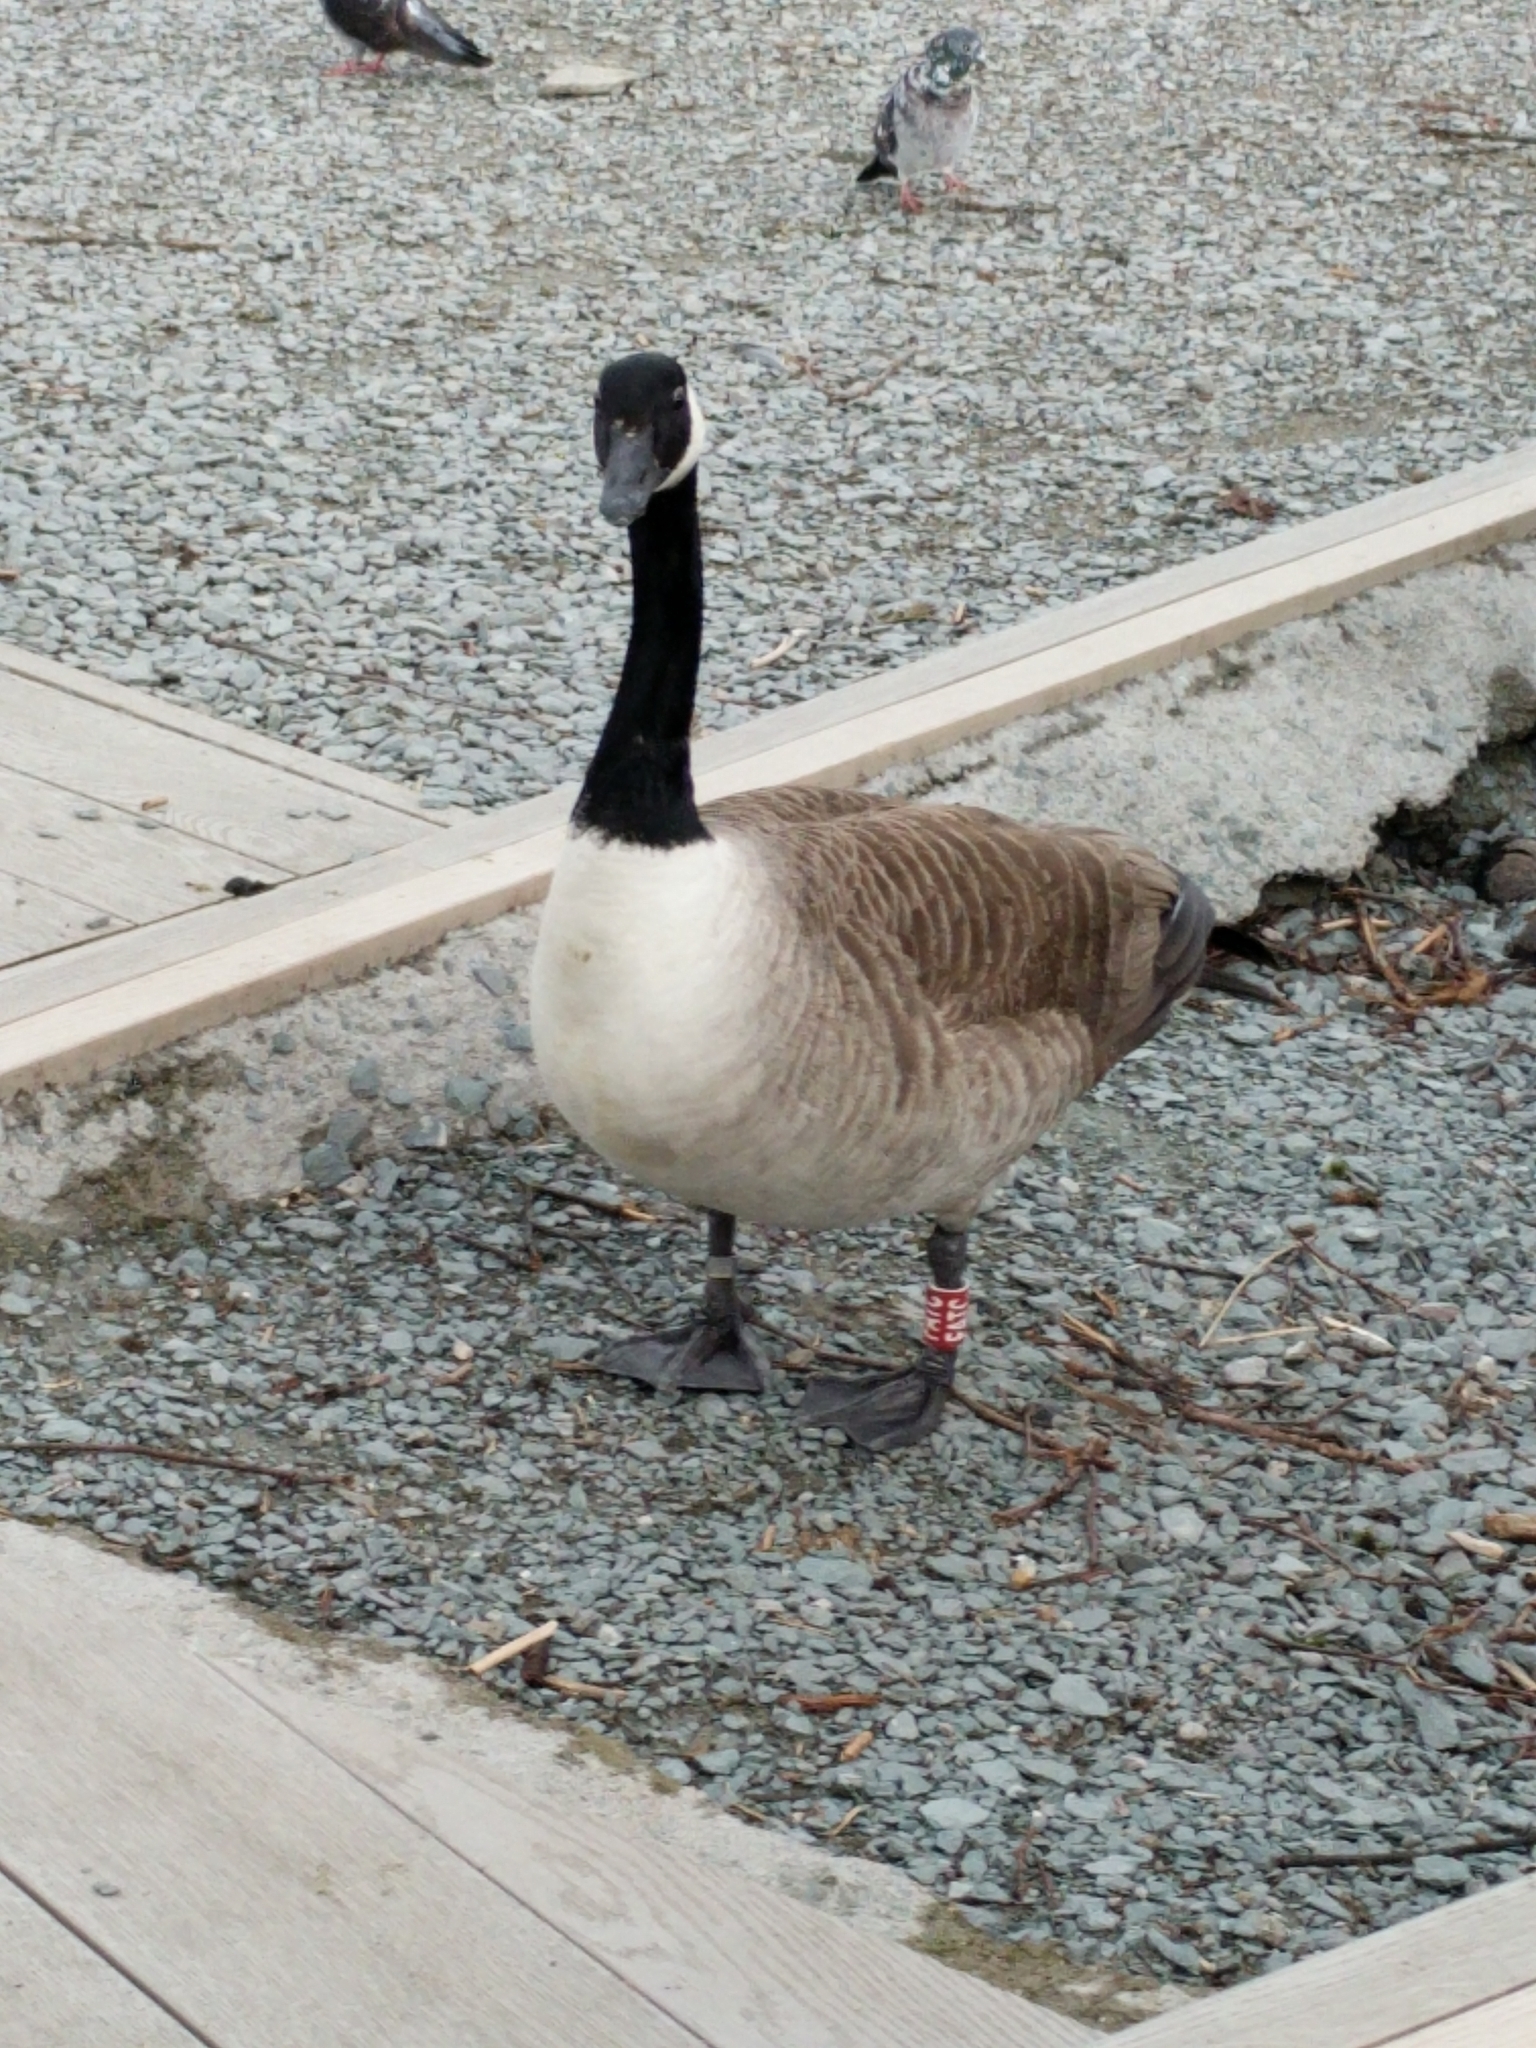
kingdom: Animalia
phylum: Chordata
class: Aves
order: Anseriformes
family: Anatidae
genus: Branta
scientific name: Branta canadensis
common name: Canada goose
